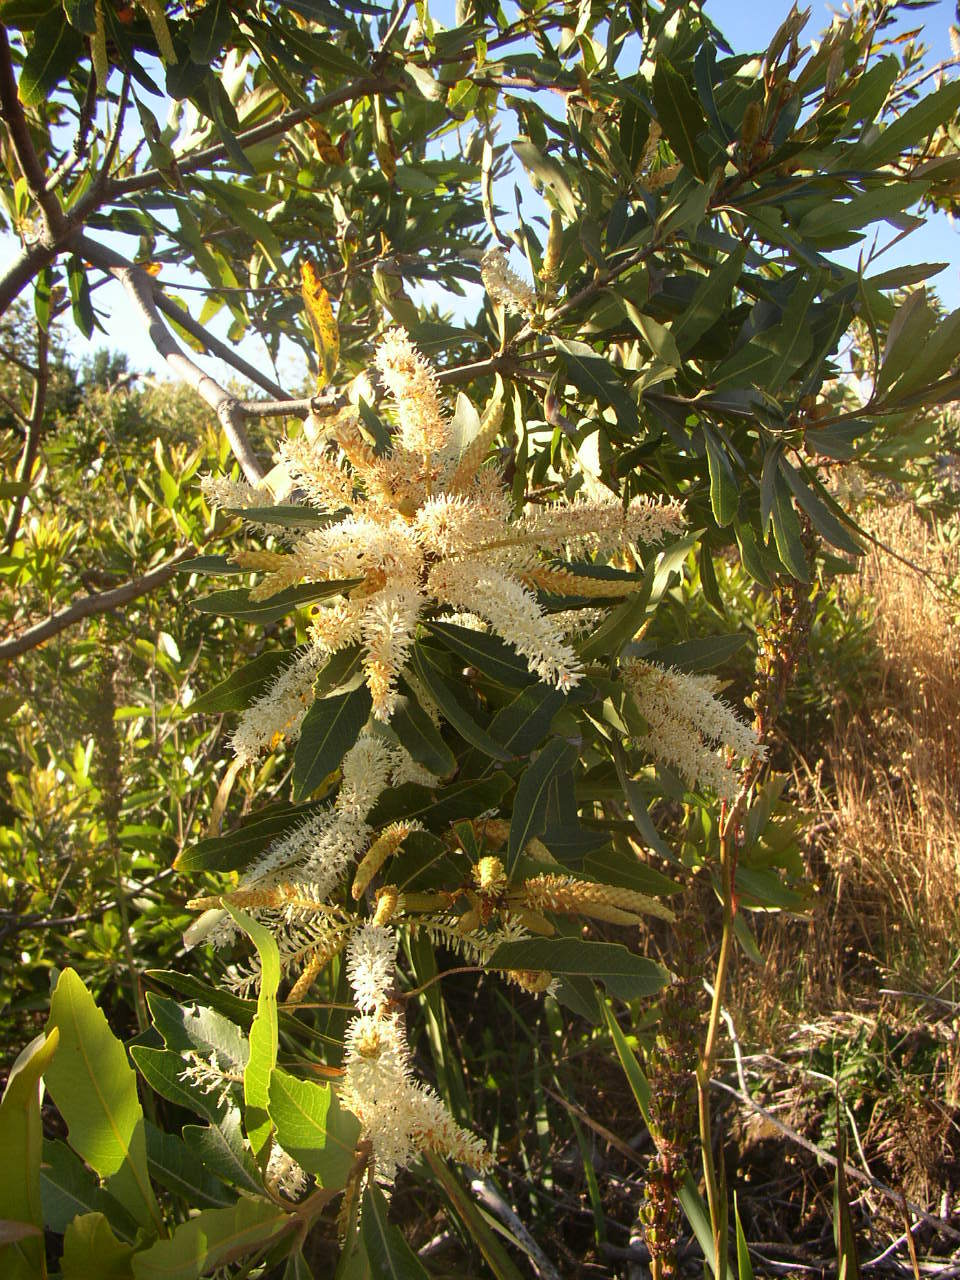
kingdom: Plantae
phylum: Tracheophyta
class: Magnoliopsida
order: Proteales
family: Proteaceae
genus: Brabejum
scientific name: Brabejum stellatifolium
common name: Wild almond
